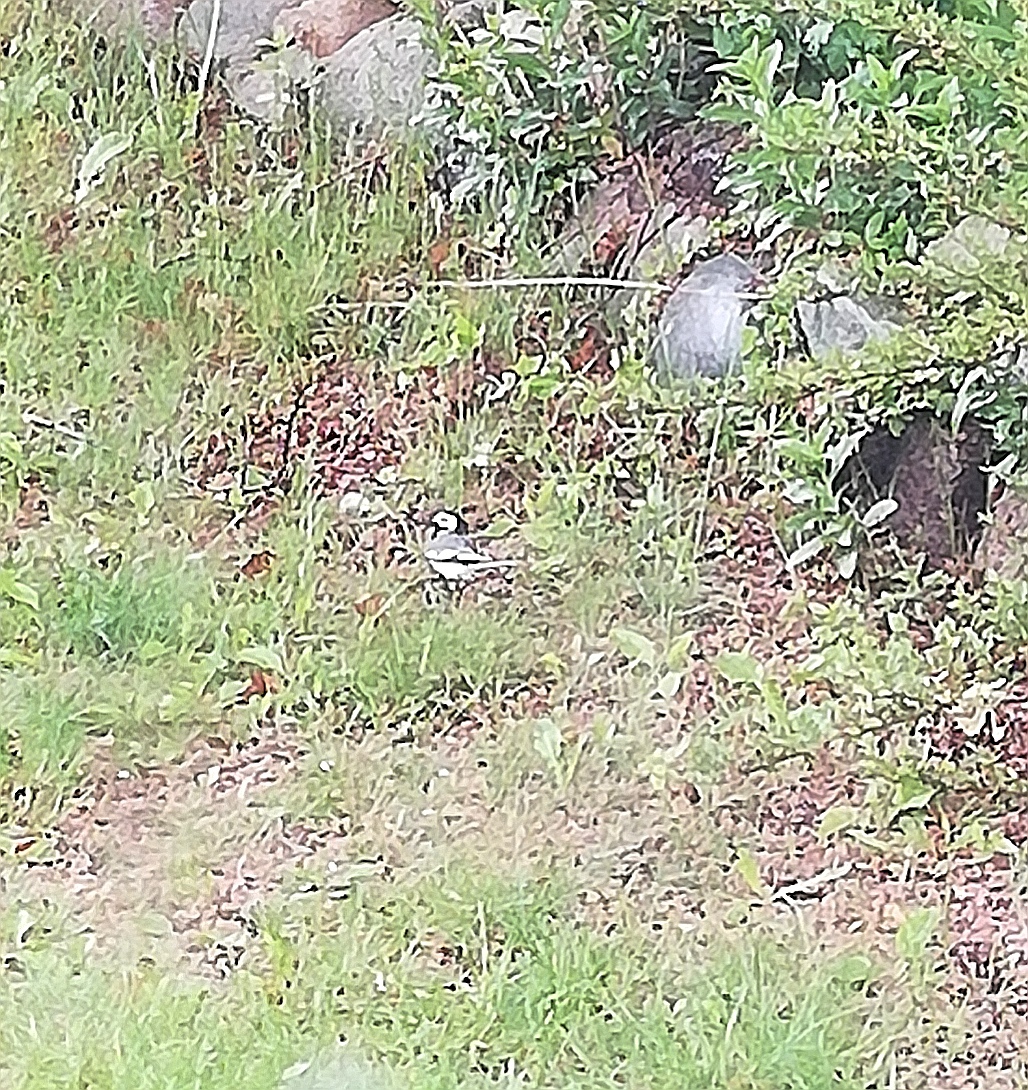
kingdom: Animalia
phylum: Chordata
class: Aves
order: Passeriformes
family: Motacillidae
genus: Motacilla
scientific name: Motacilla alba
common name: White wagtail
